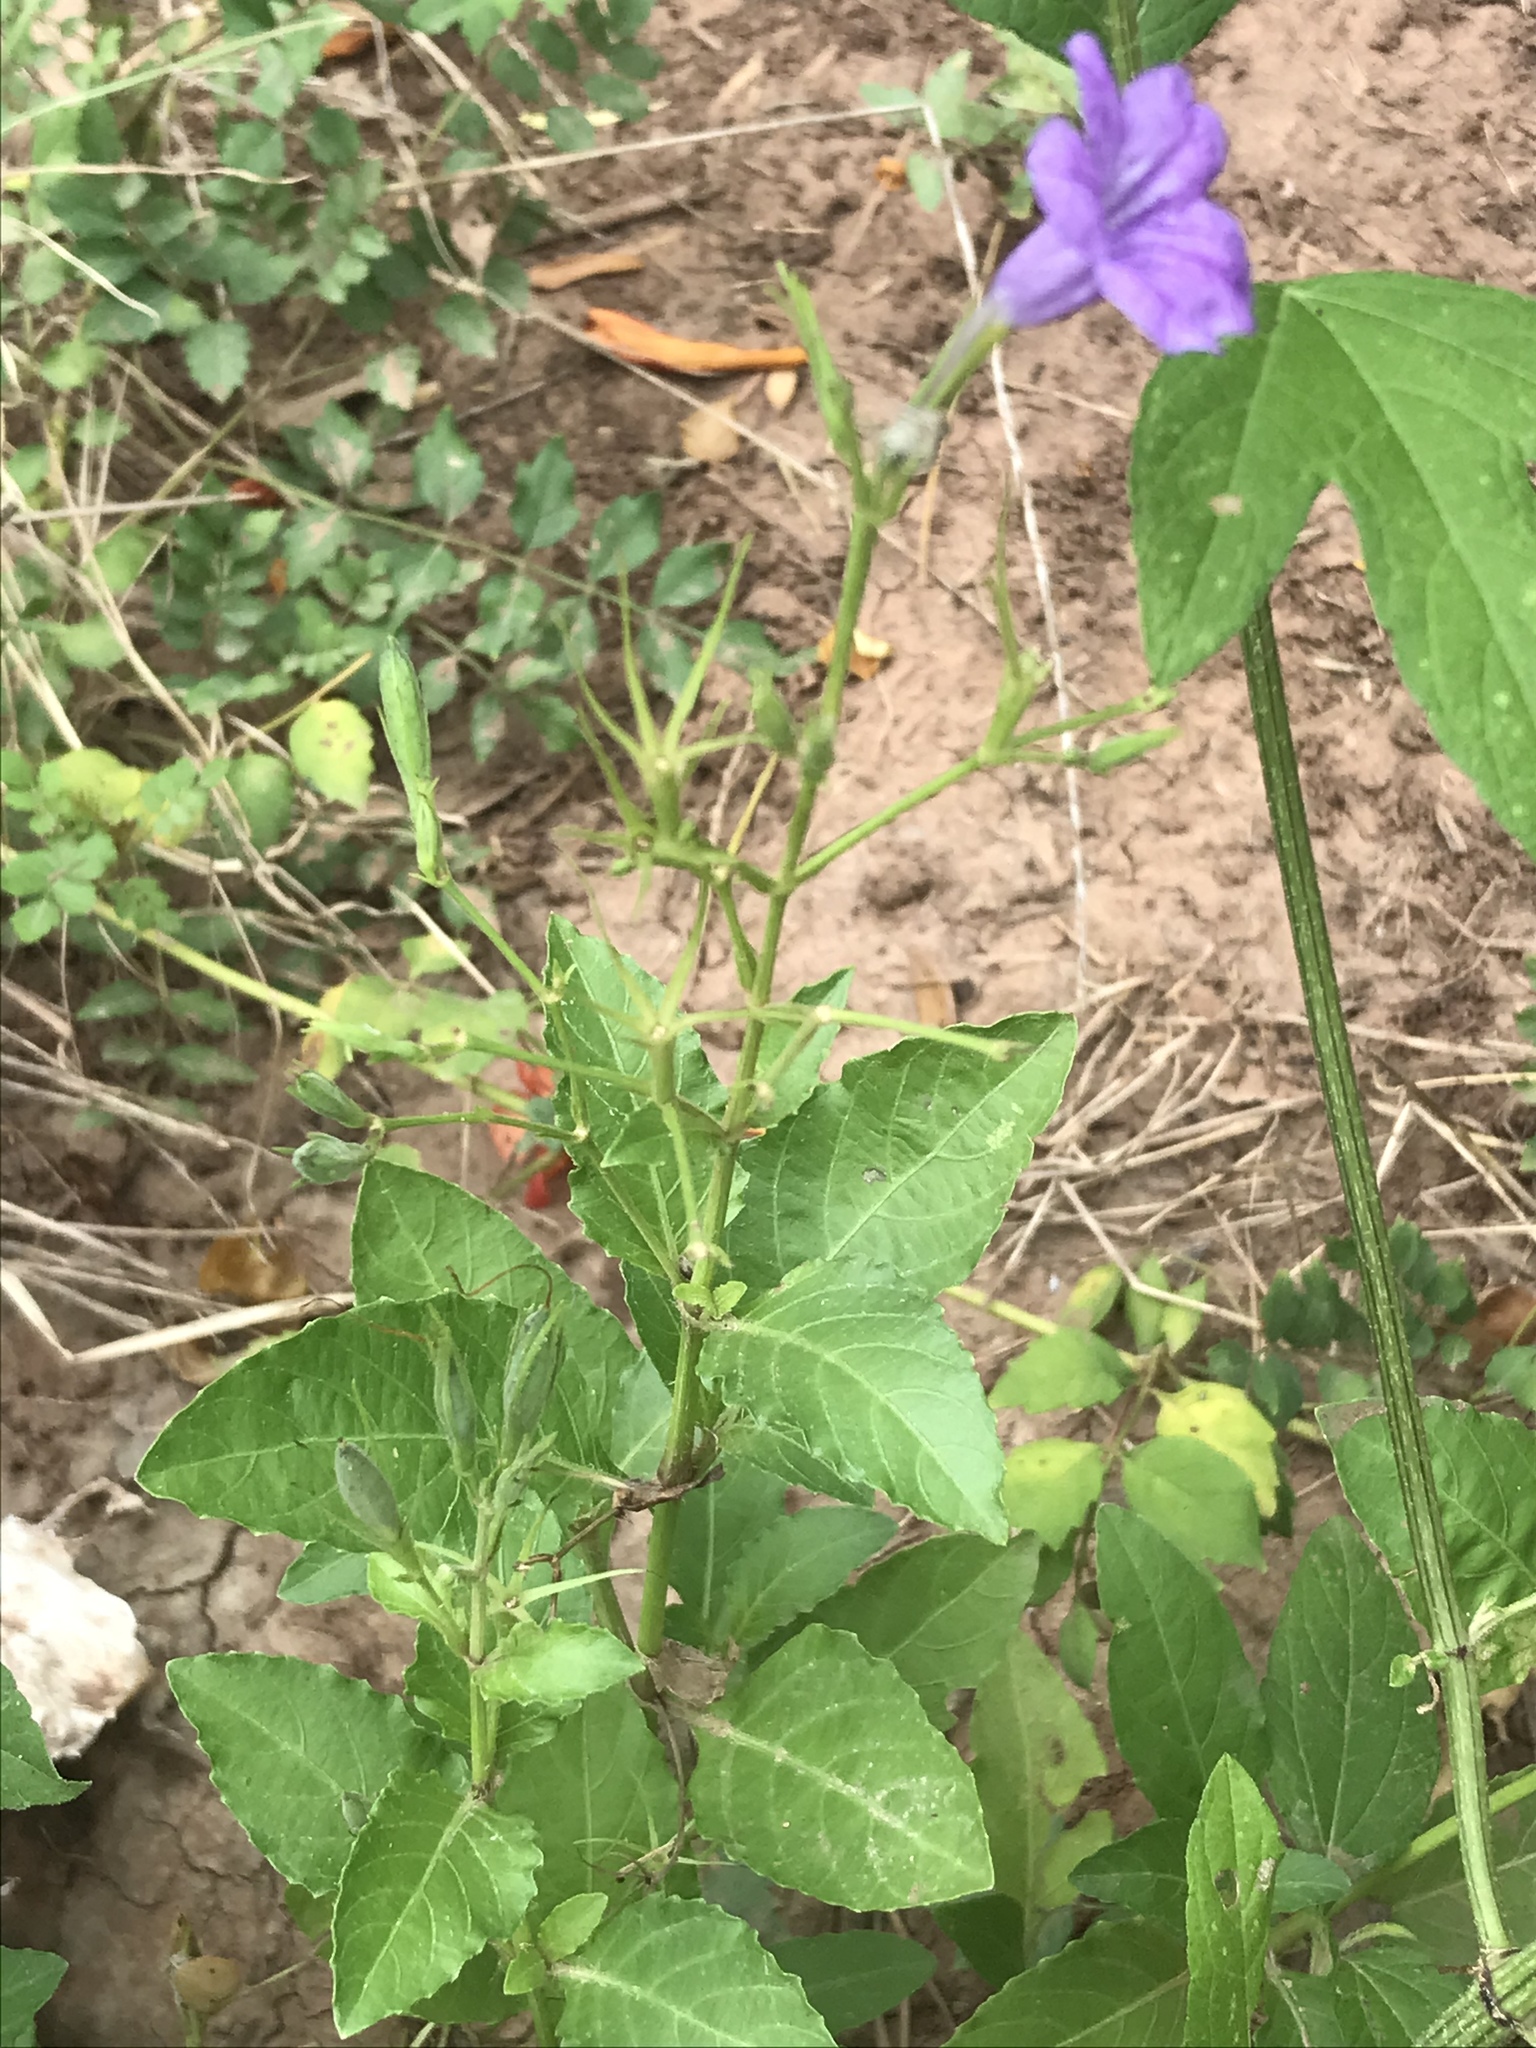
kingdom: Plantae
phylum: Tracheophyta
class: Magnoliopsida
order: Lamiales
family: Acanthaceae
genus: Ruellia
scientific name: Ruellia ciliatiflora
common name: Hairyflower wild petunia
